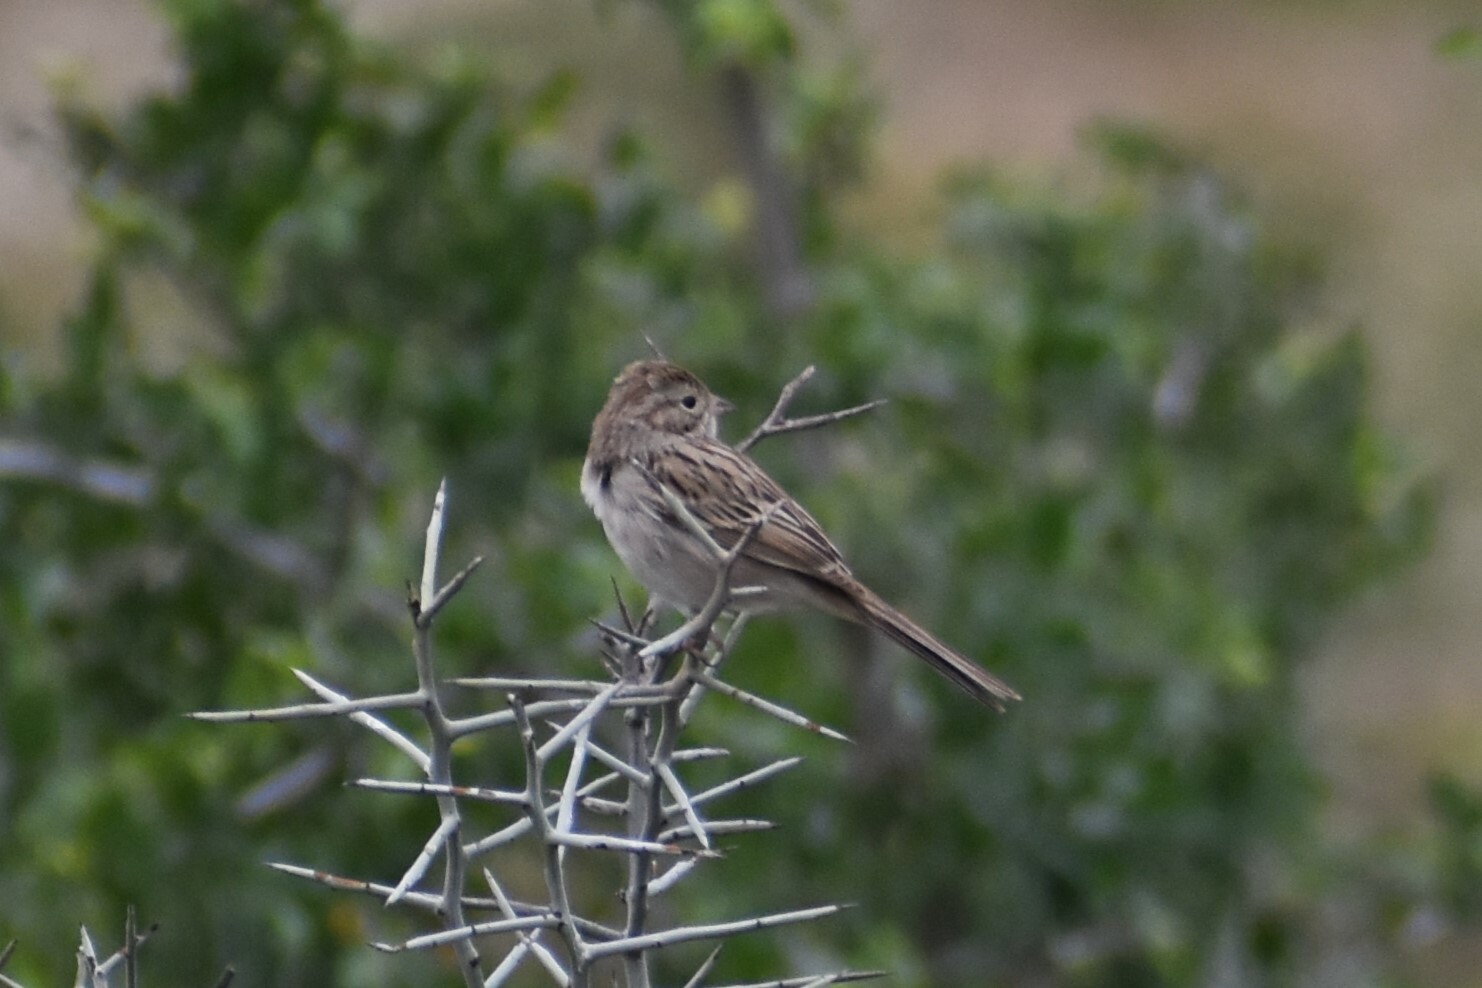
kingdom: Animalia
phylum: Chordata
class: Aves
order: Passeriformes
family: Passerellidae
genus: Spizella
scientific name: Spizella breweri
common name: Brewer's sparrow
